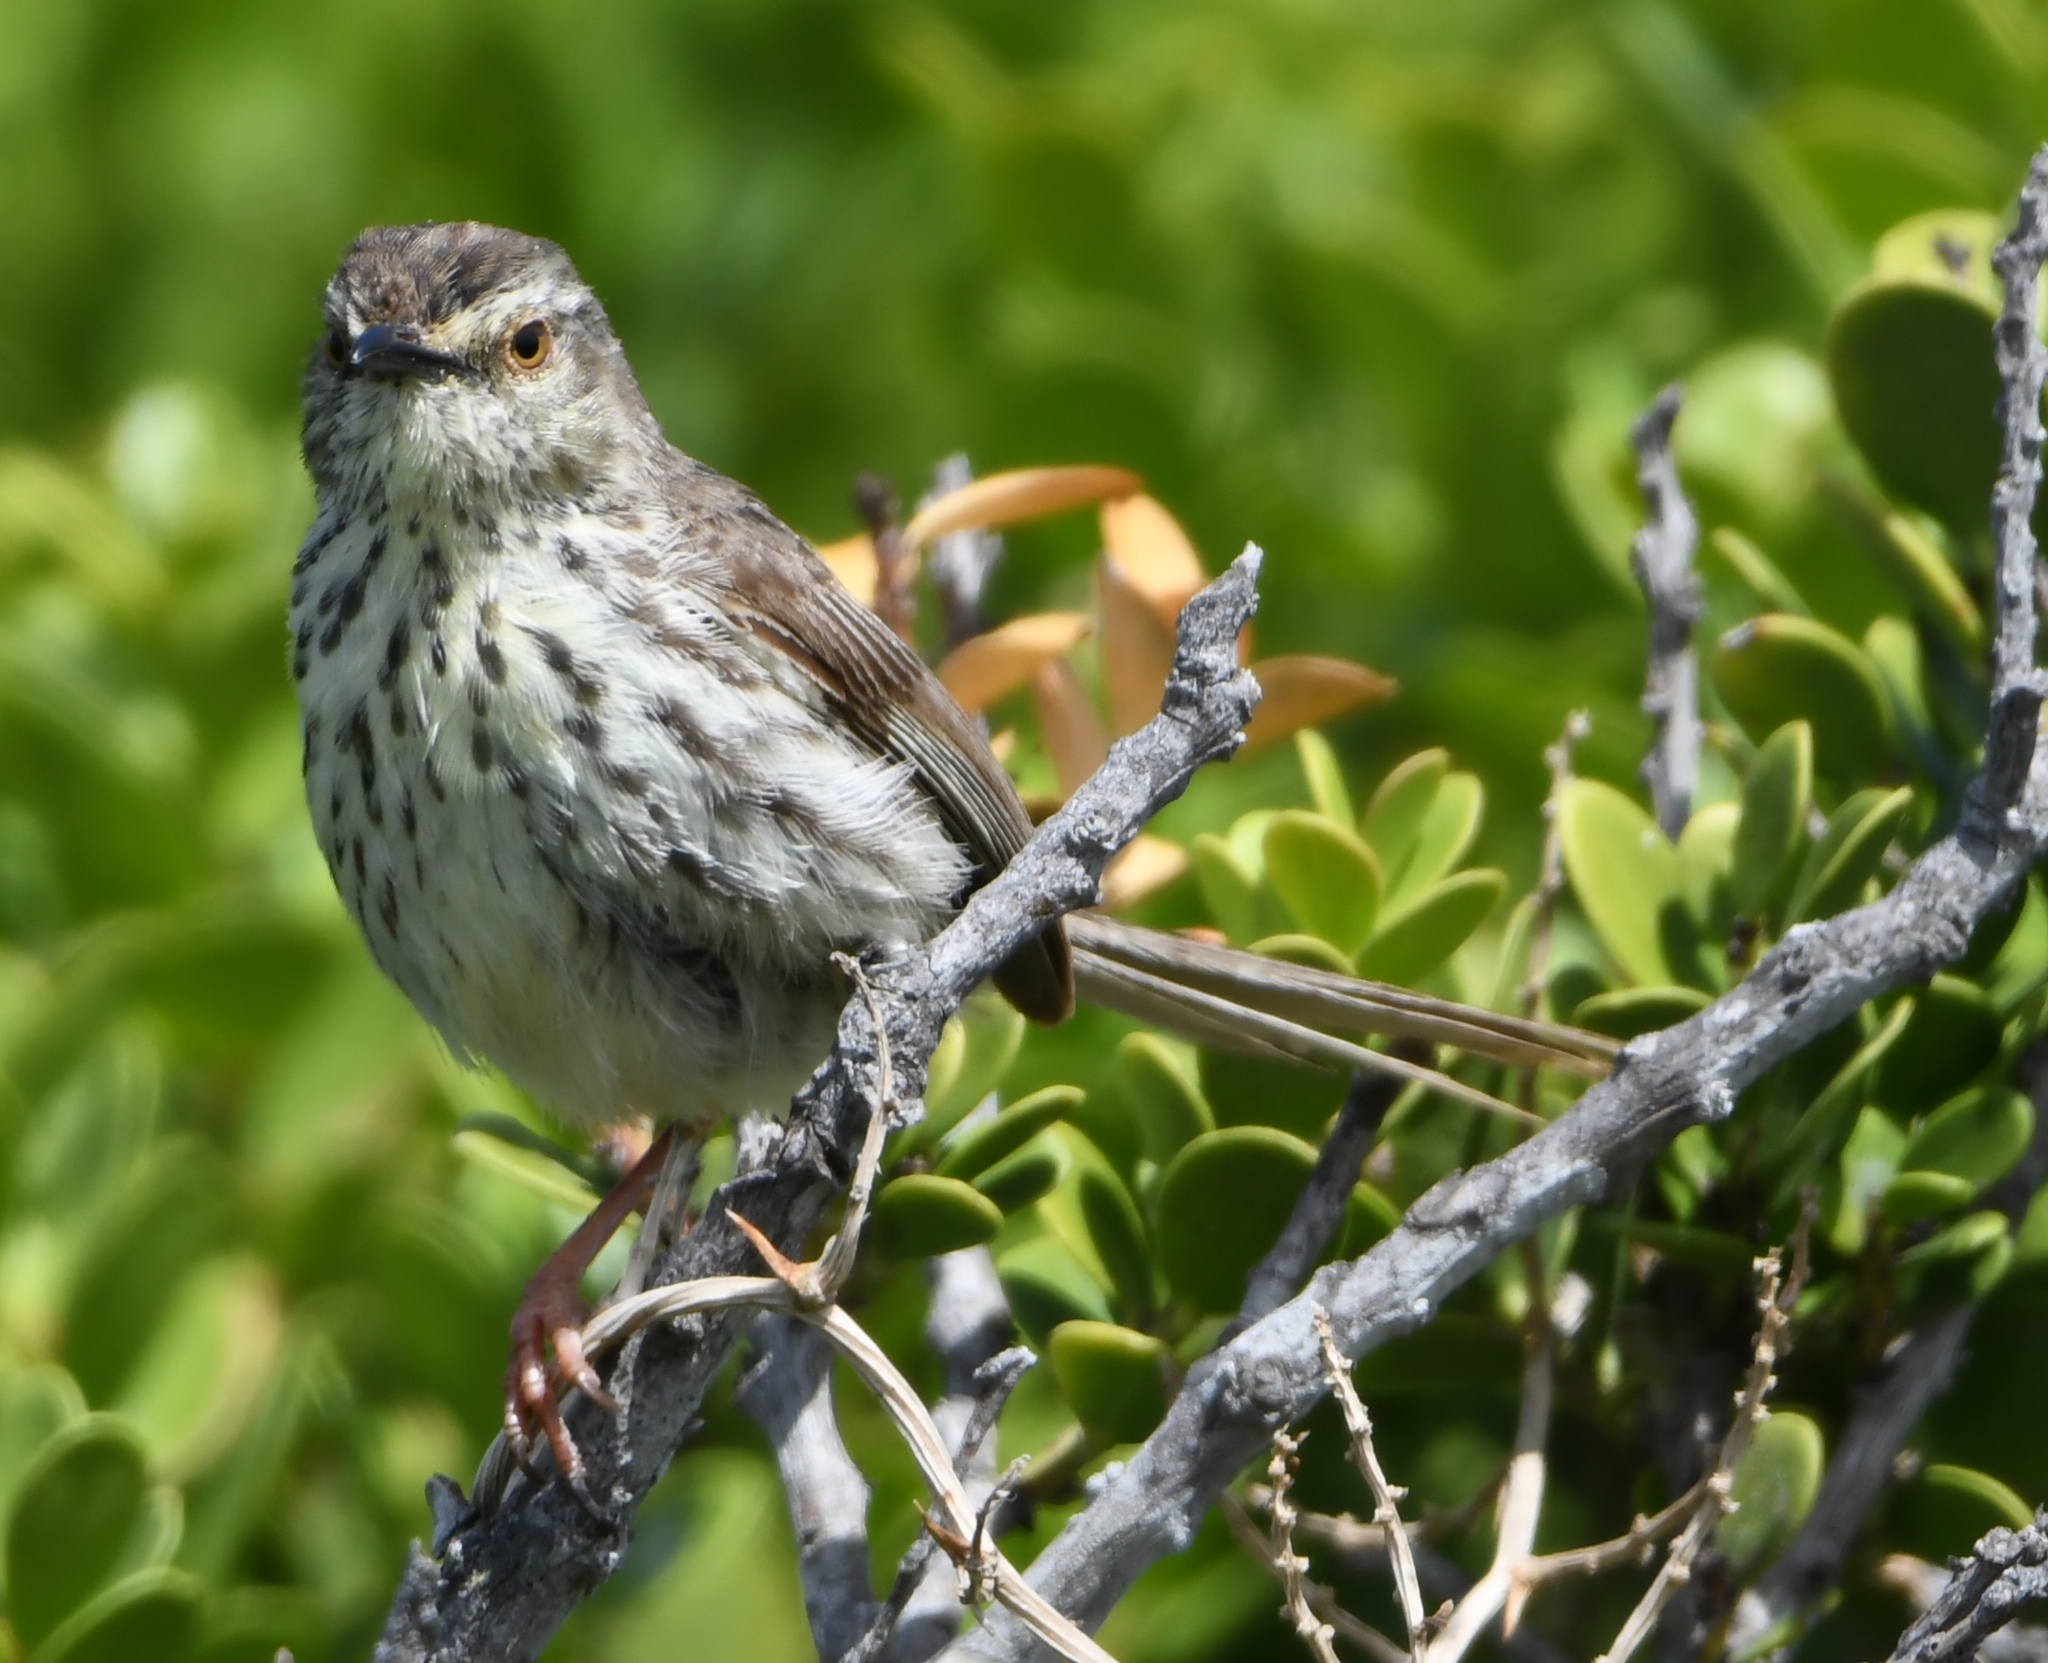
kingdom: Animalia
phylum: Chordata
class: Aves
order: Passeriformes
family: Cisticolidae
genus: Prinia
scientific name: Prinia maculosa
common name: Karoo prinia
